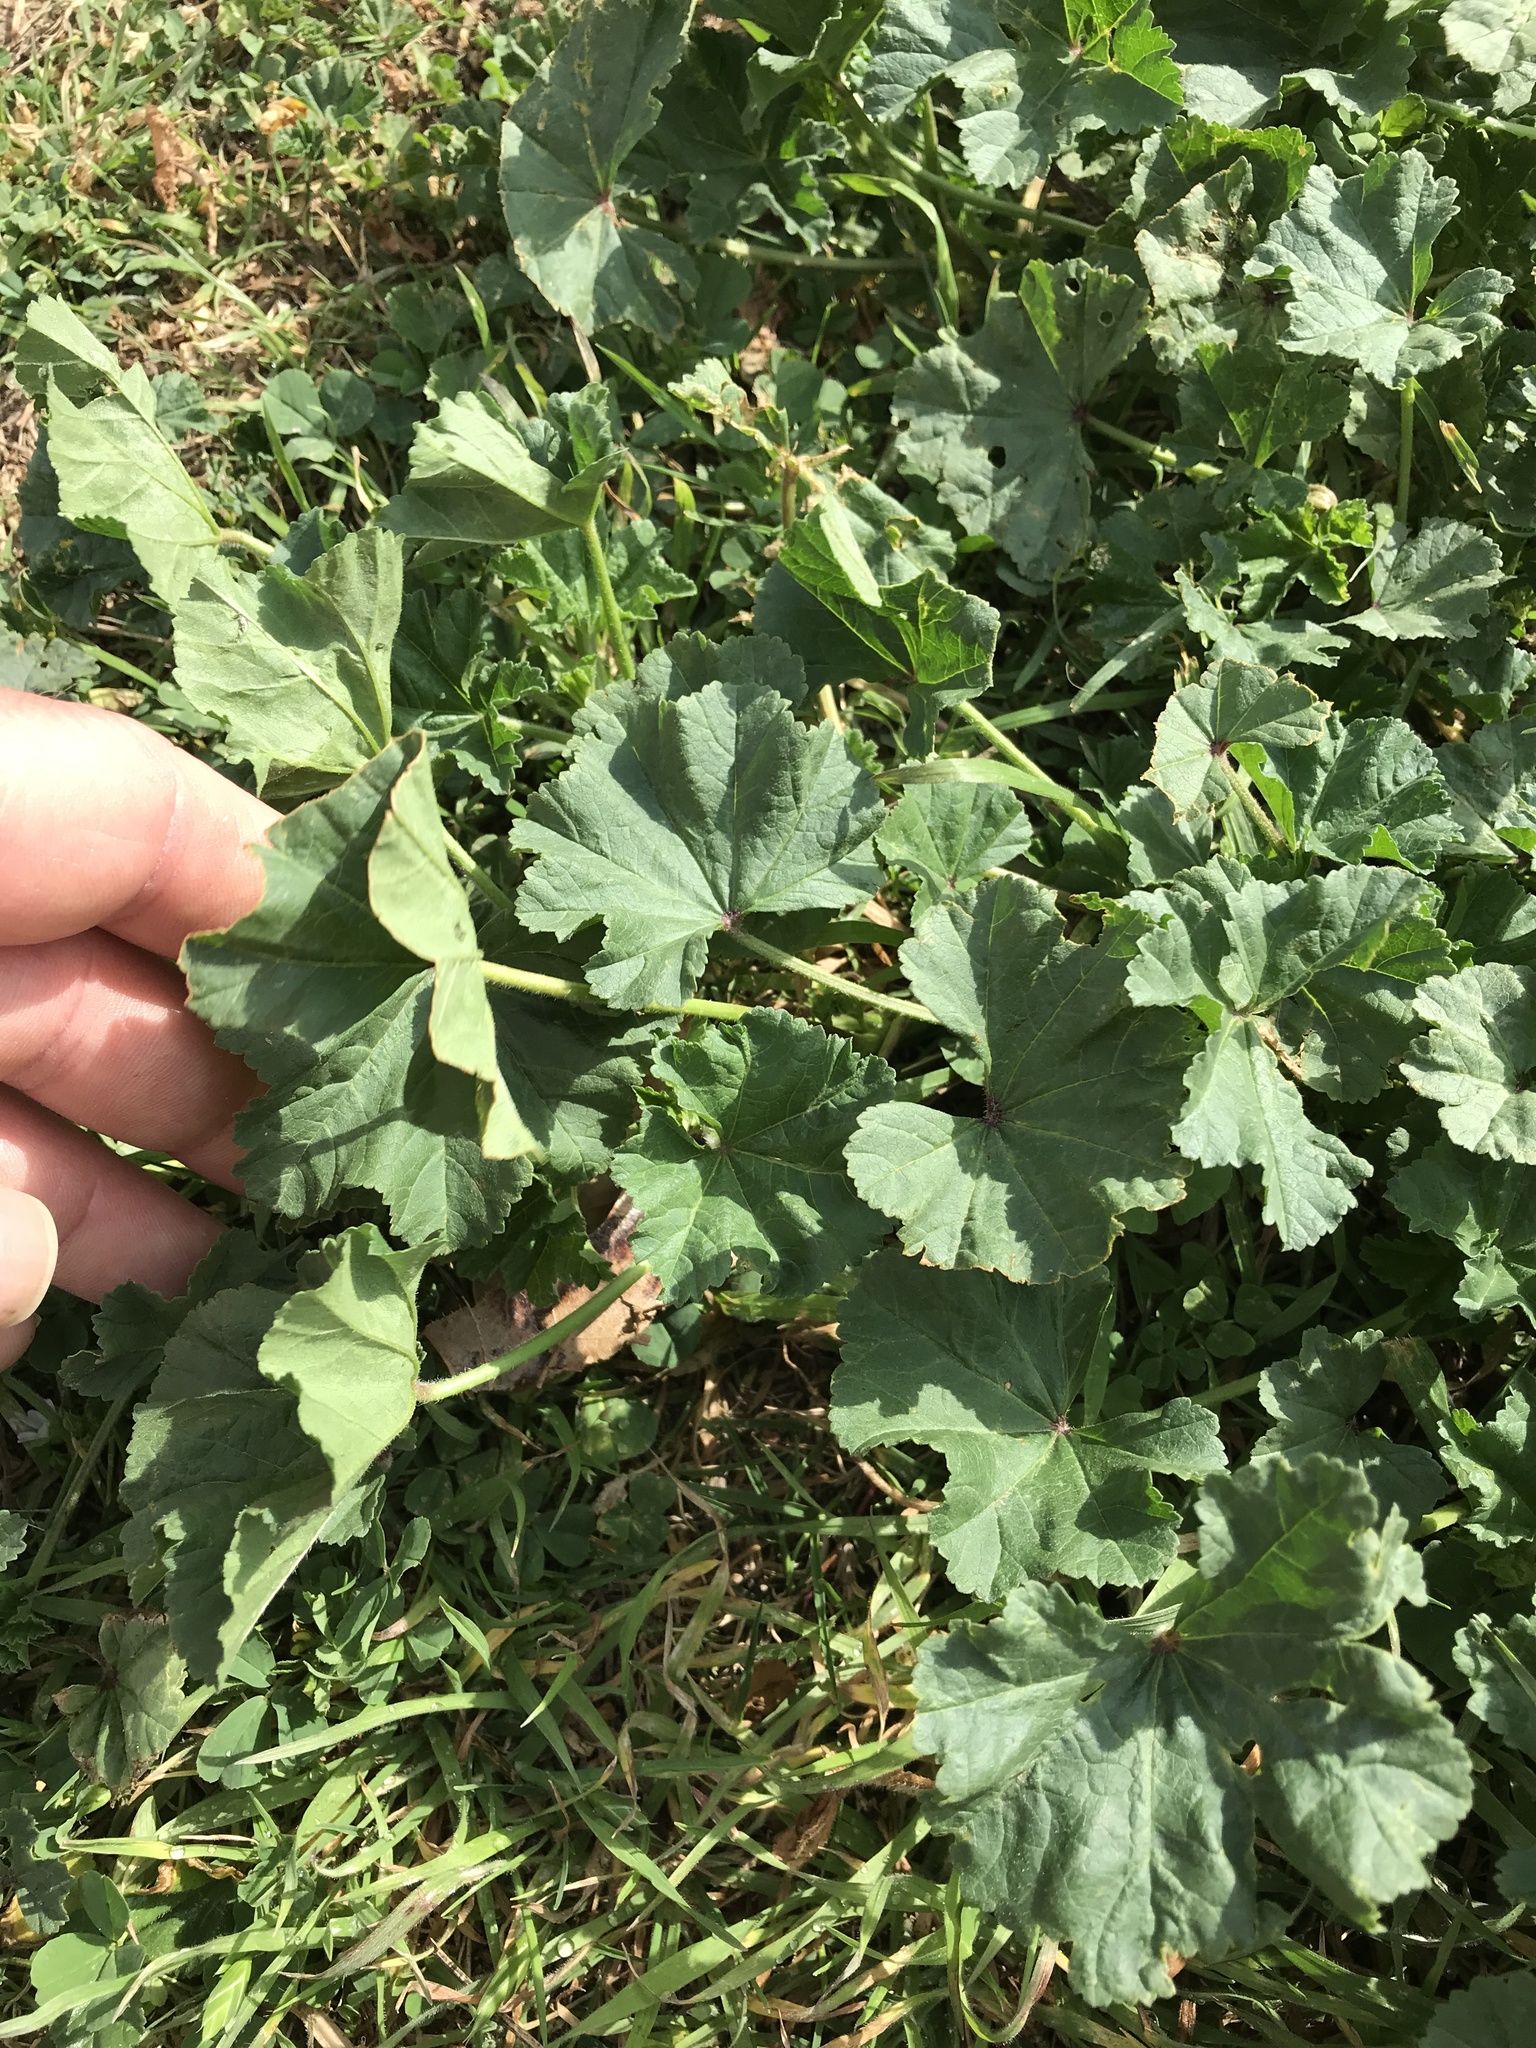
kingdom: Plantae
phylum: Tracheophyta
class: Magnoliopsida
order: Malvales
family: Malvaceae
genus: Malva
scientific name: Malva parviflora
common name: Least mallow
